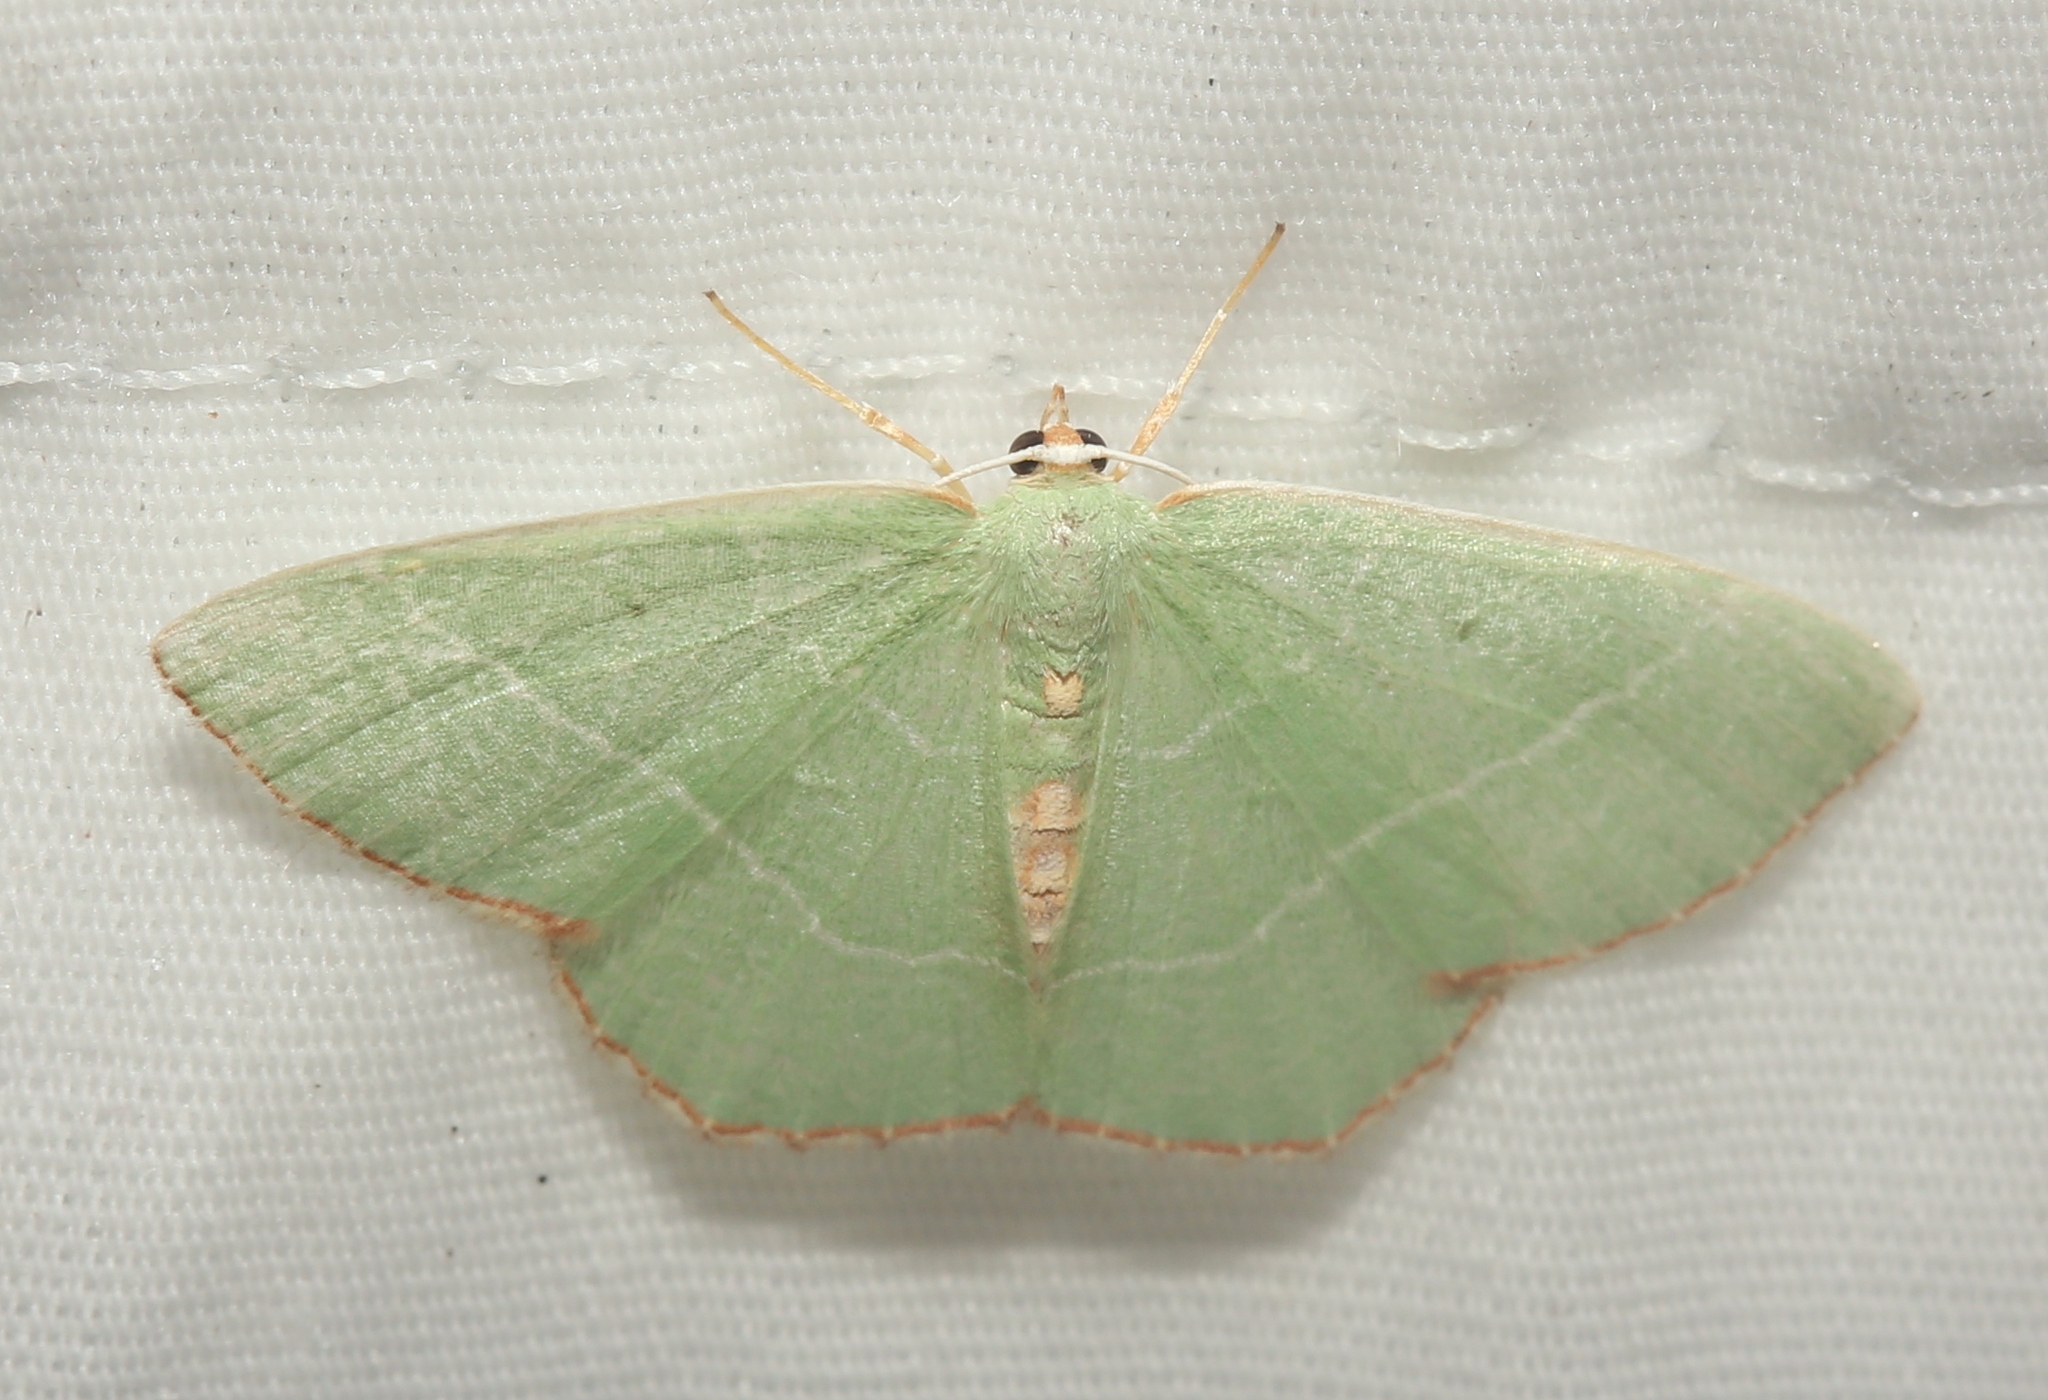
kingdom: Animalia
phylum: Arthropoda
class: Insecta
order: Lepidoptera
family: Geometridae
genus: Nemoria
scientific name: Nemoria bistriaria
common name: Red-fringed emerald
